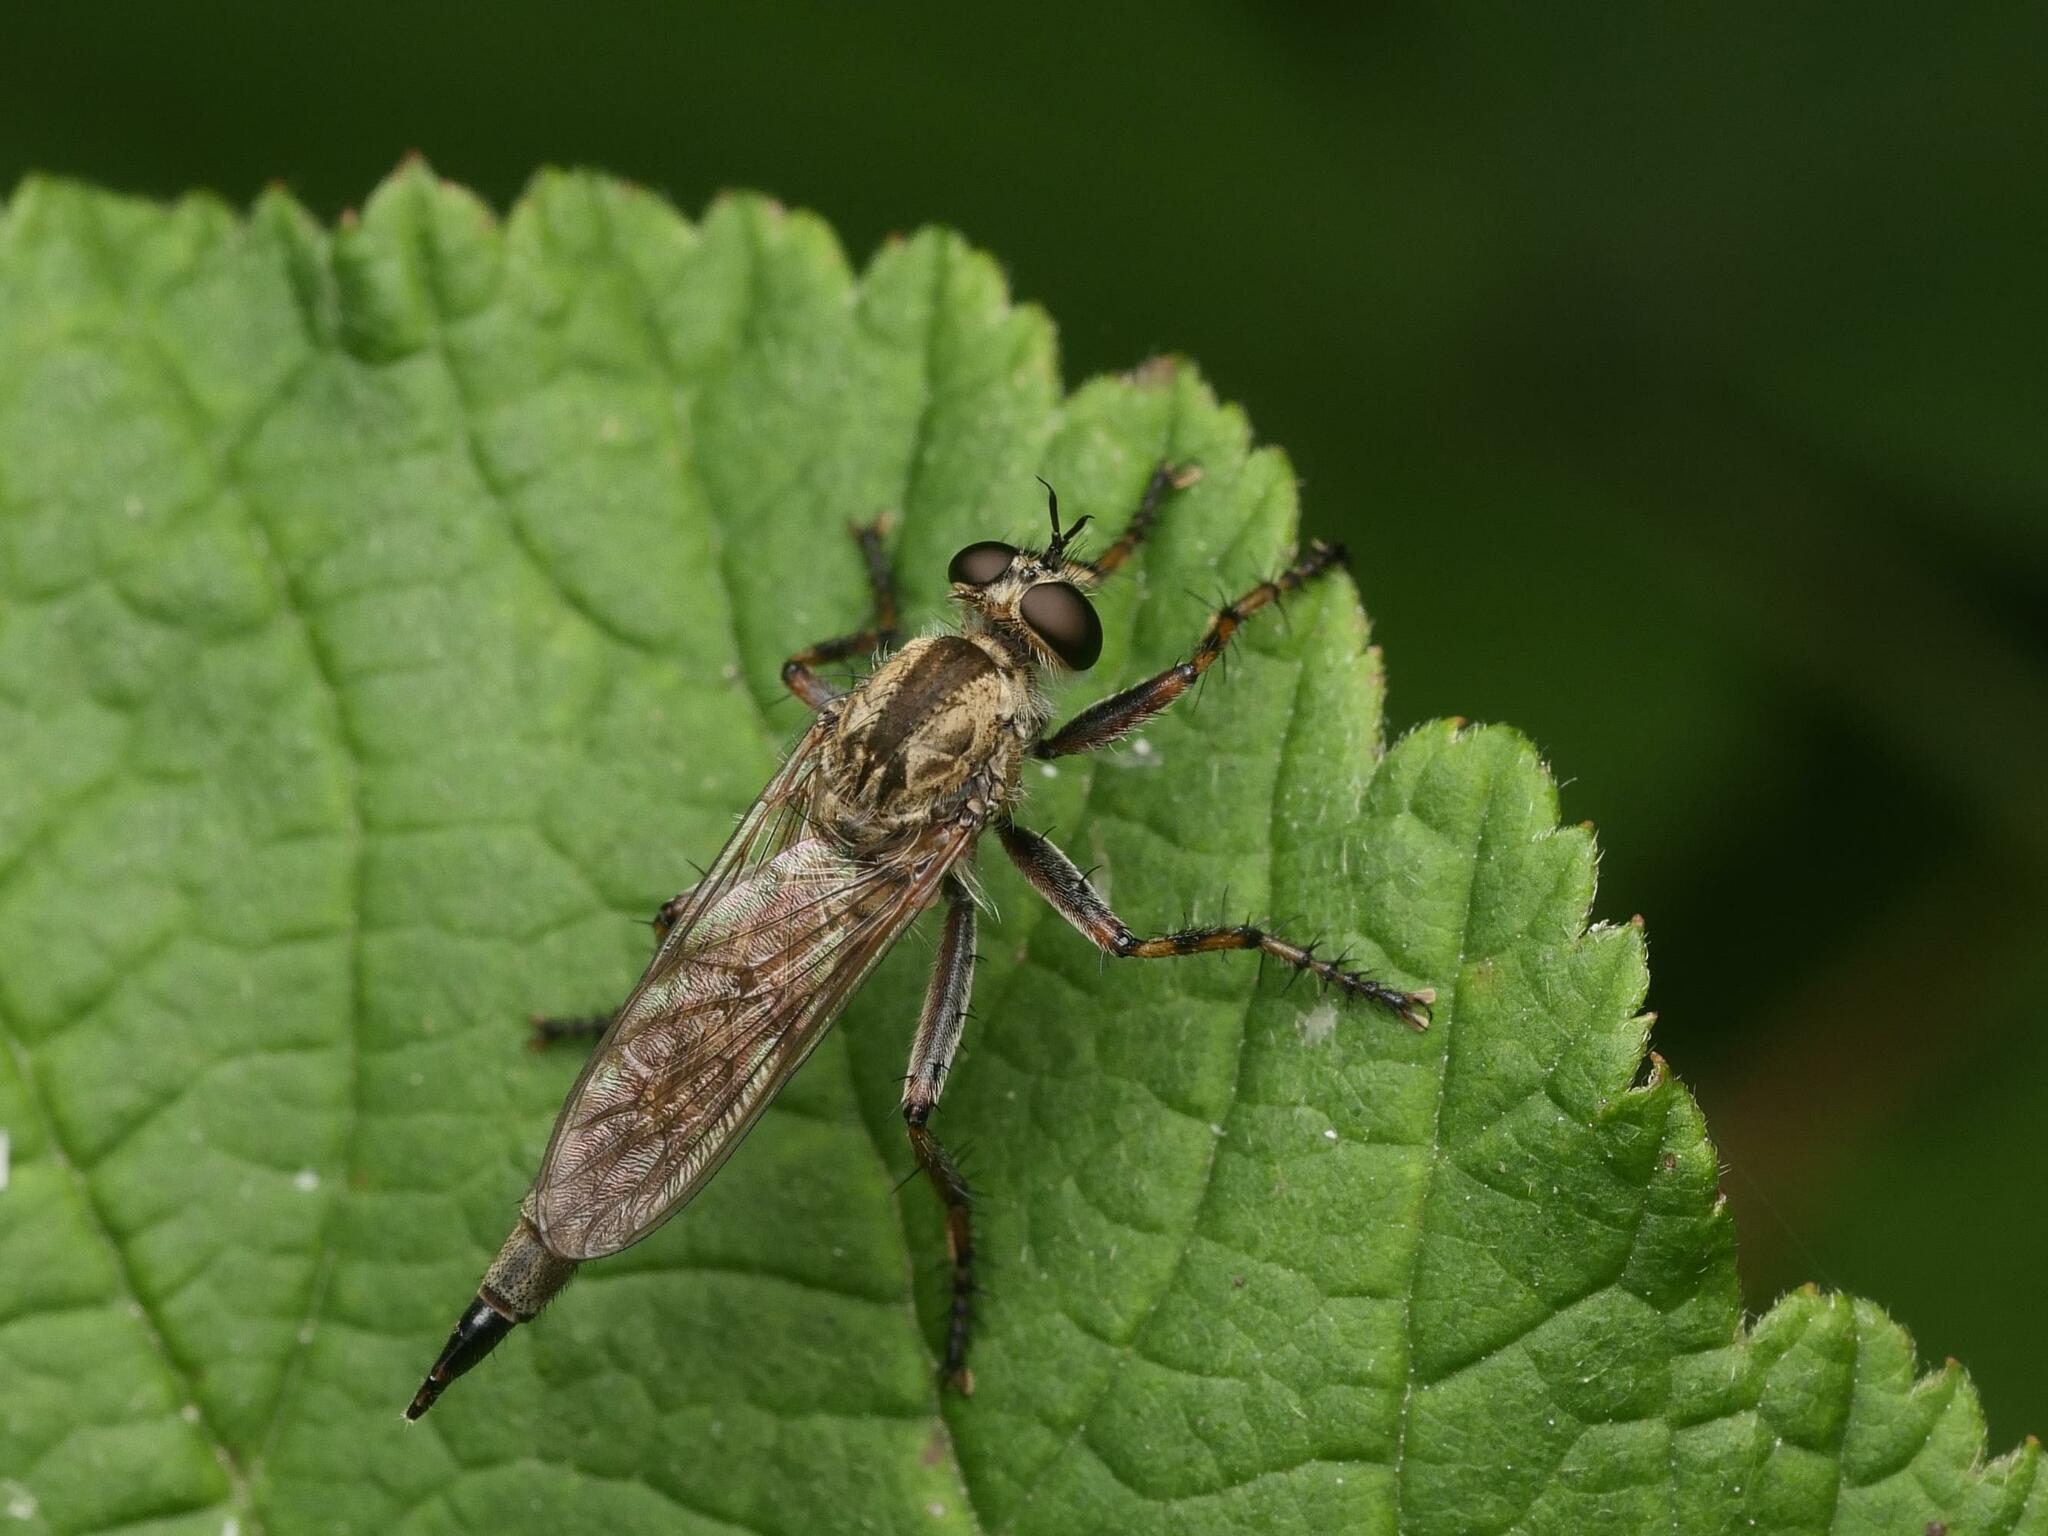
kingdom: Animalia
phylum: Arthropoda
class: Insecta
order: Diptera
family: Asilidae
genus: Epitriptus
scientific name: Epitriptus cingulatus
